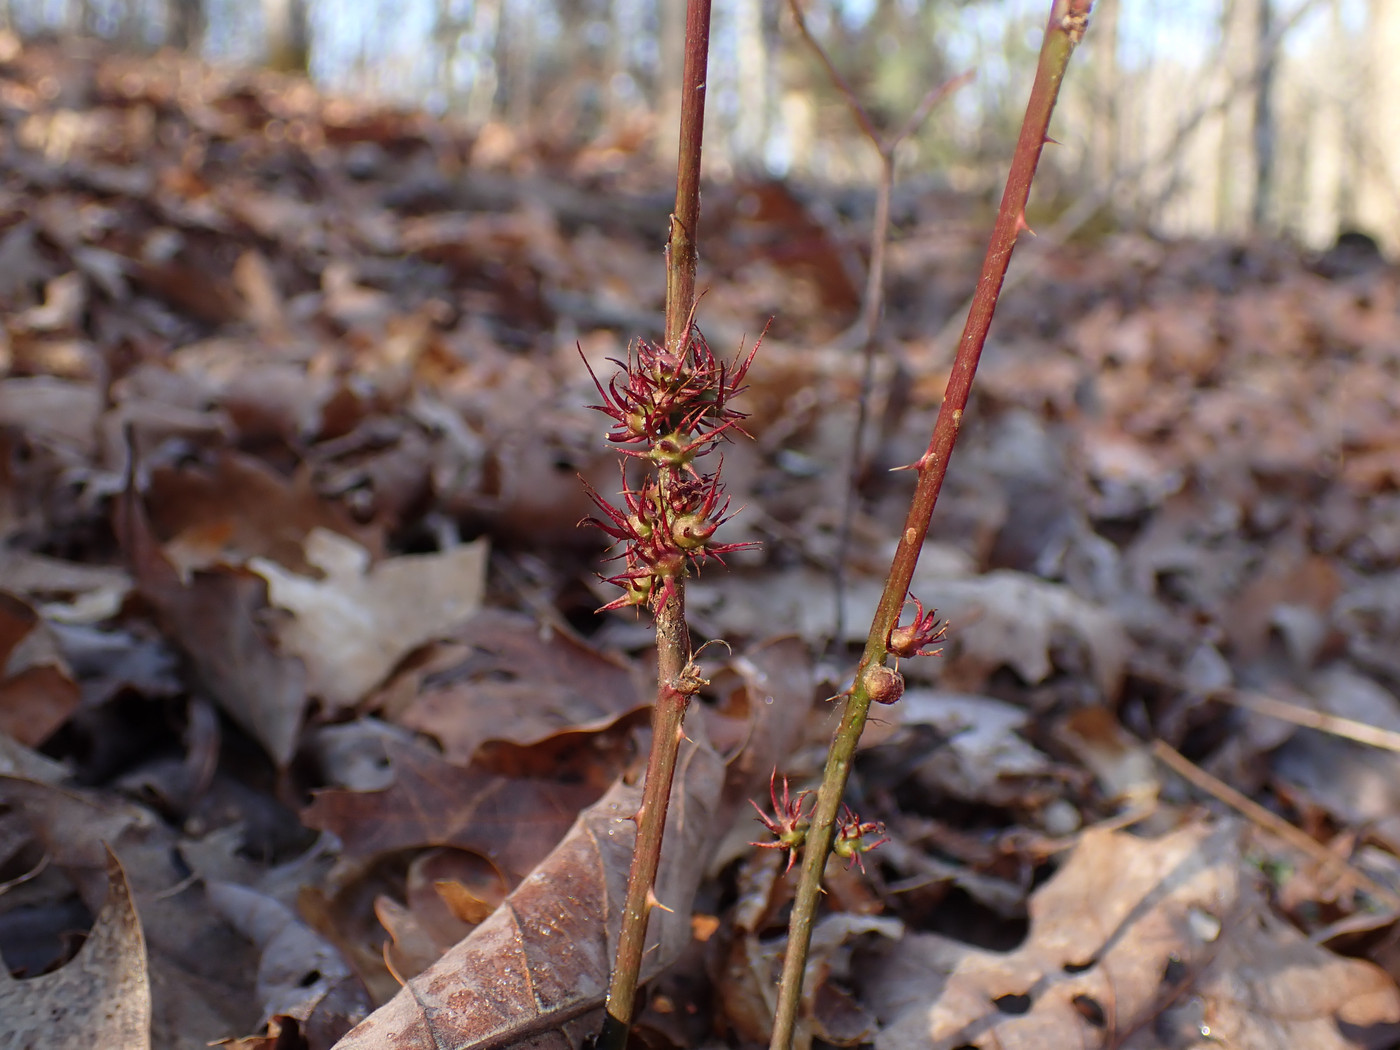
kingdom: Animalia
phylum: Arthropoda
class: Insecta
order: Hymenoptera
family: Cynipidae
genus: Diastrophus
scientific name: Diastrophus
